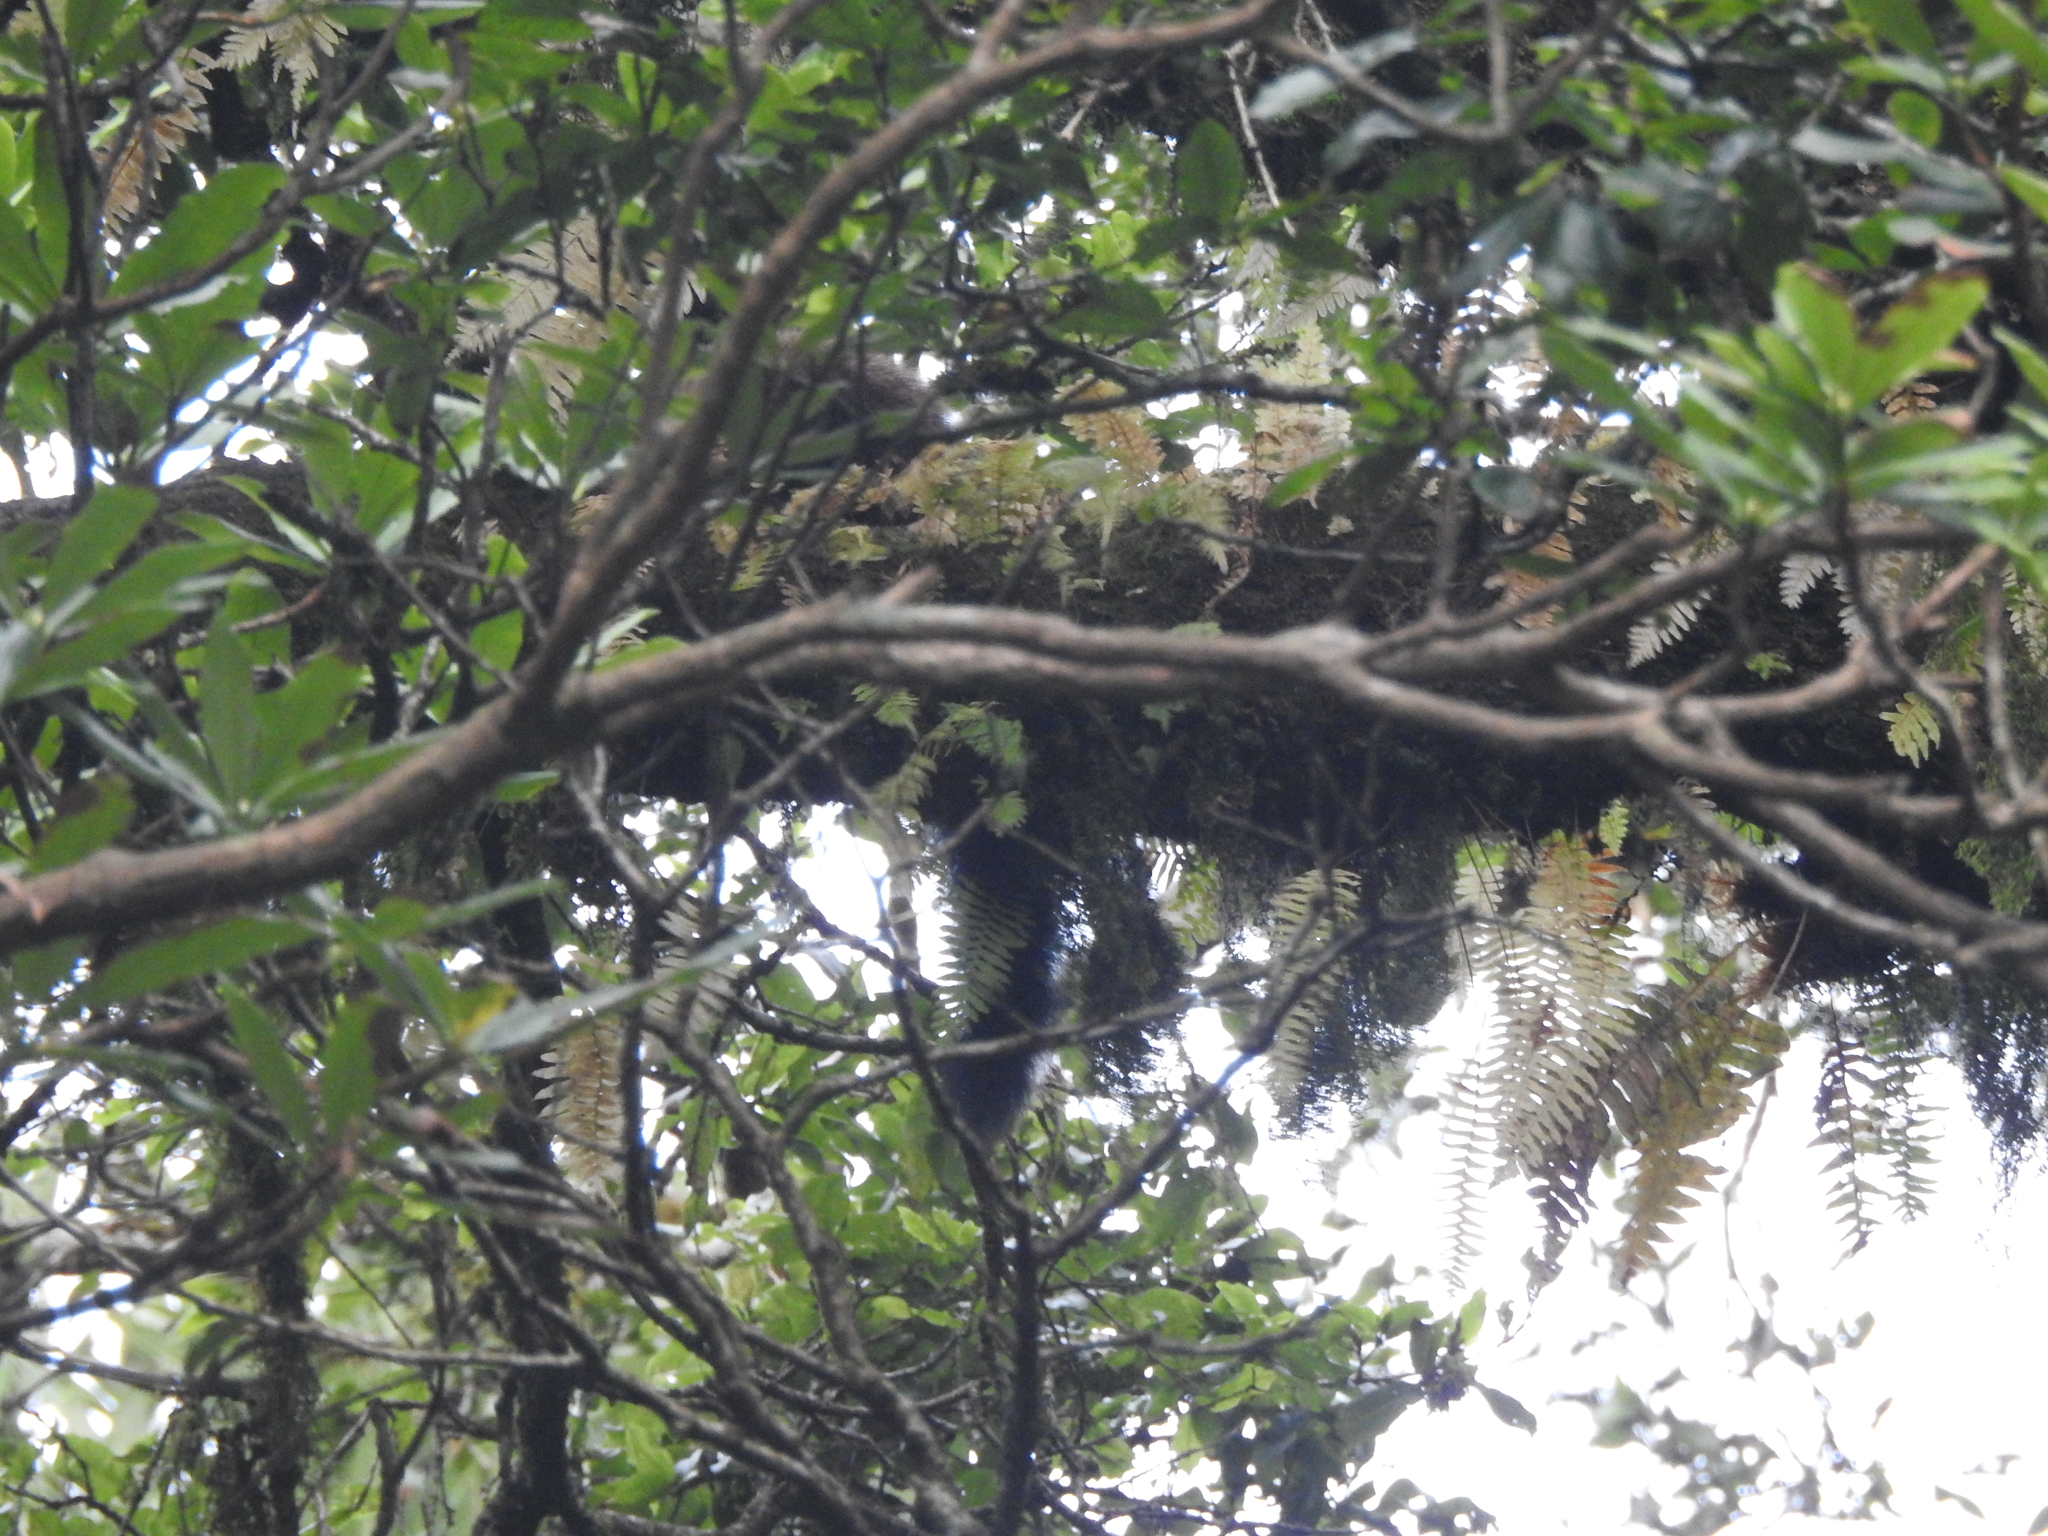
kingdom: Animalia
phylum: Chordata
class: Mammalia
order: Carnivora
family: Mustelidae
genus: Martes
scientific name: Martes flavigula
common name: Yellow-throated marten
